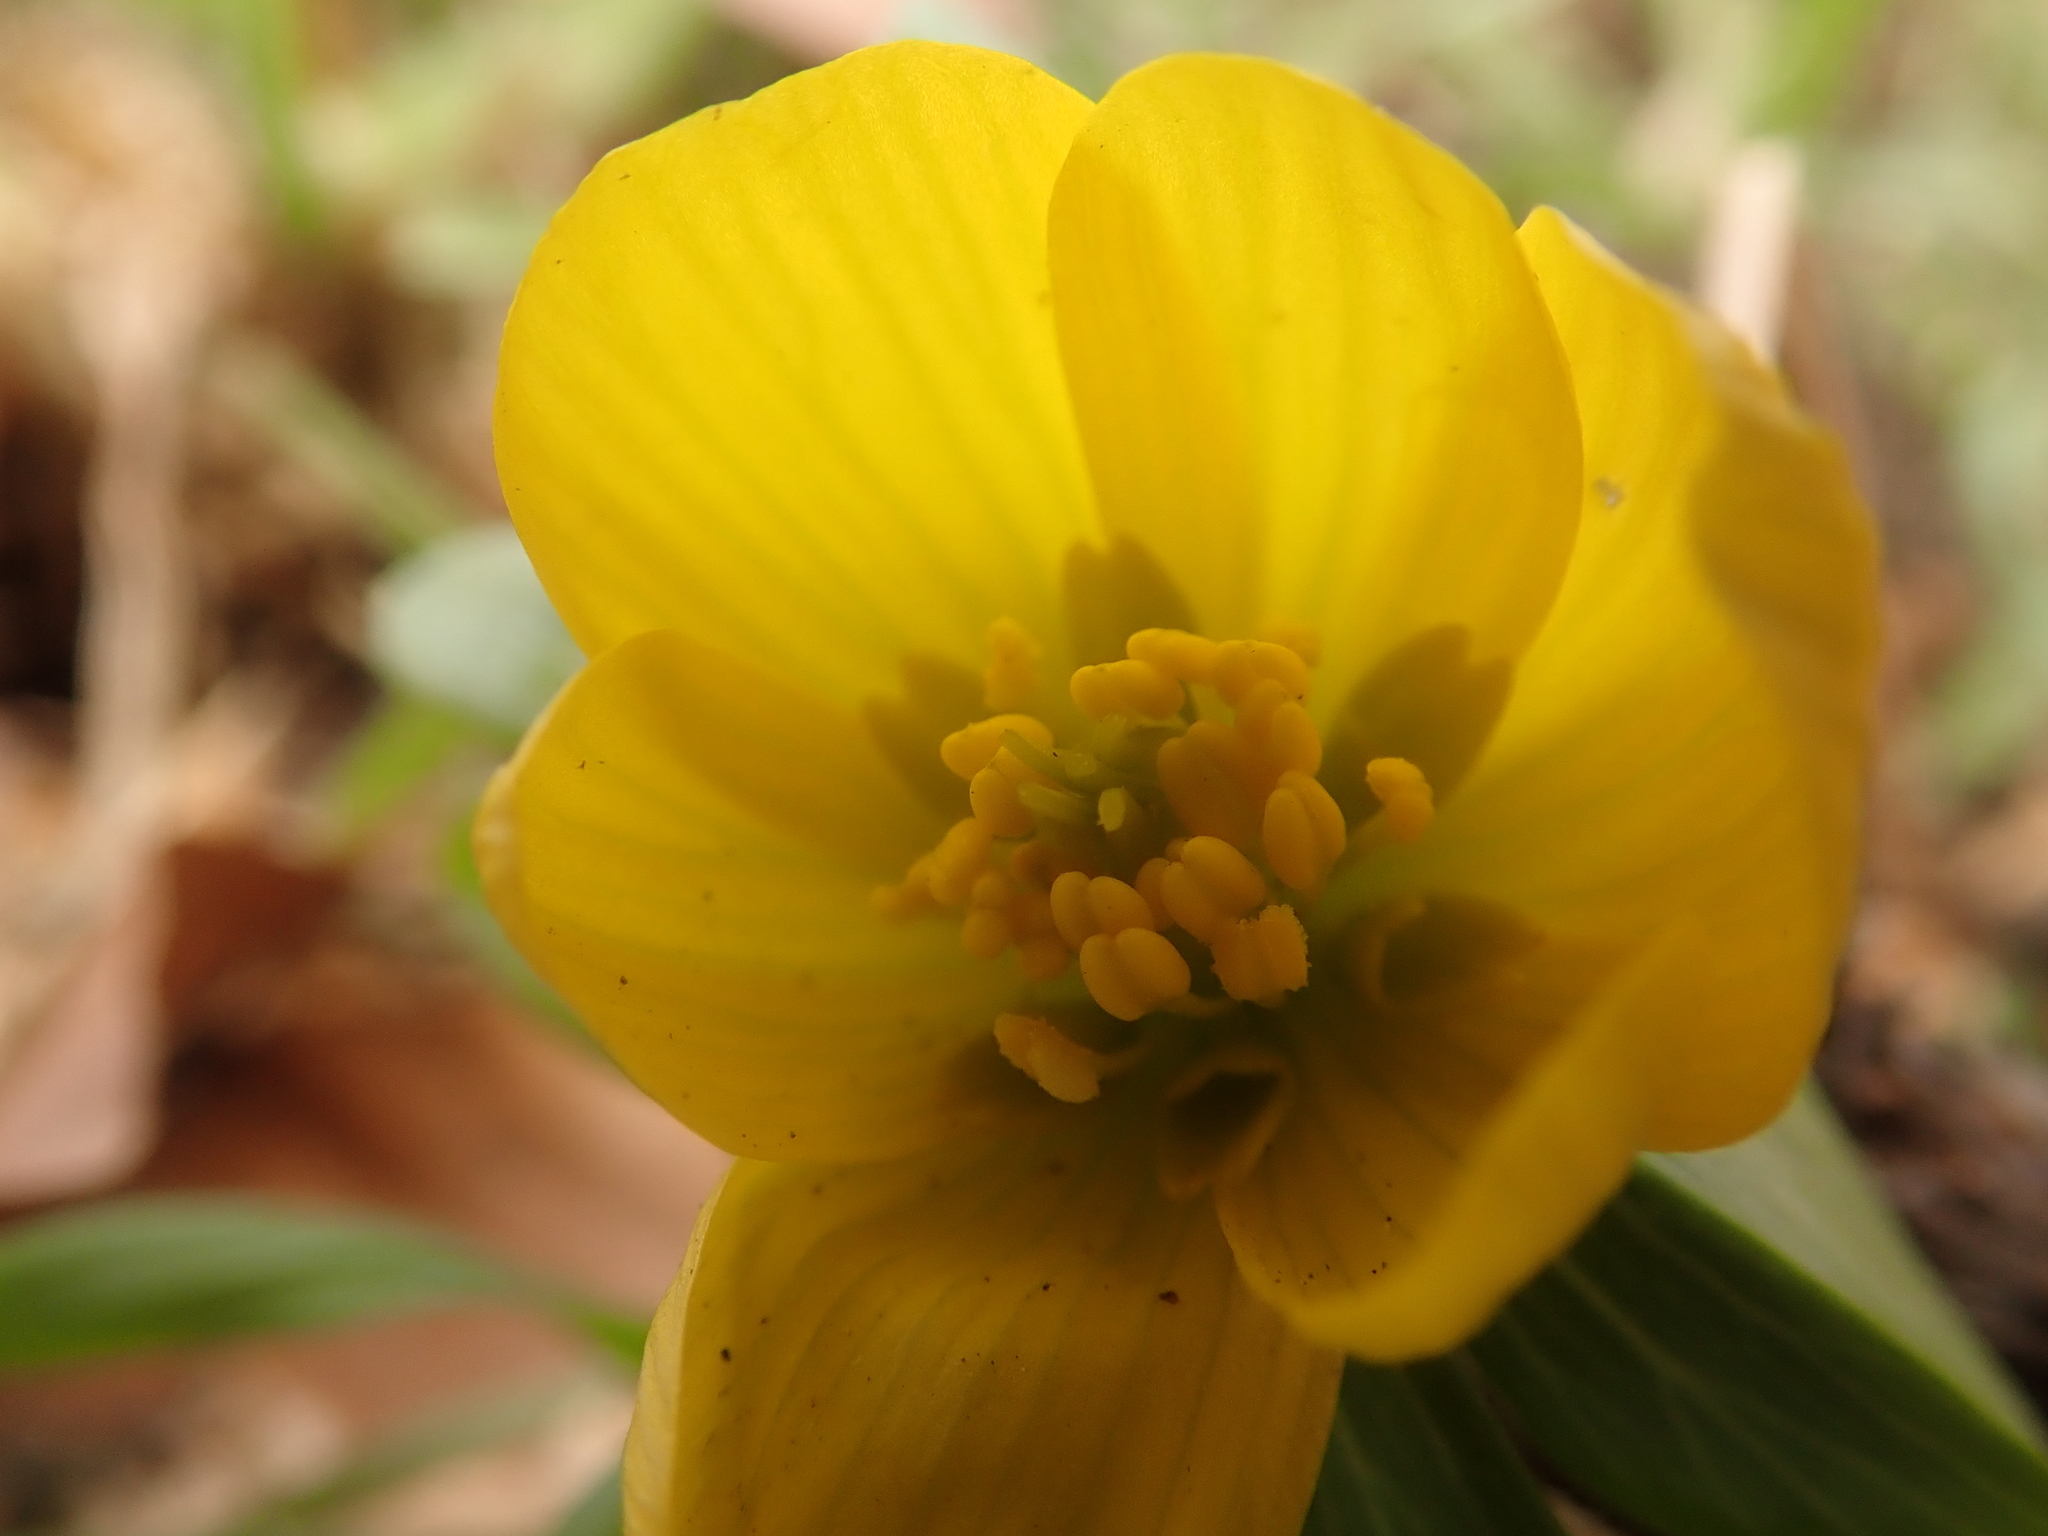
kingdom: Plantae
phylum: Tracheophyta
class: Magnoliopsida
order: Ranunculales
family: Ranunculaceae
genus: Eranthis
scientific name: Eranthis hyemalis
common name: Winter aconite
